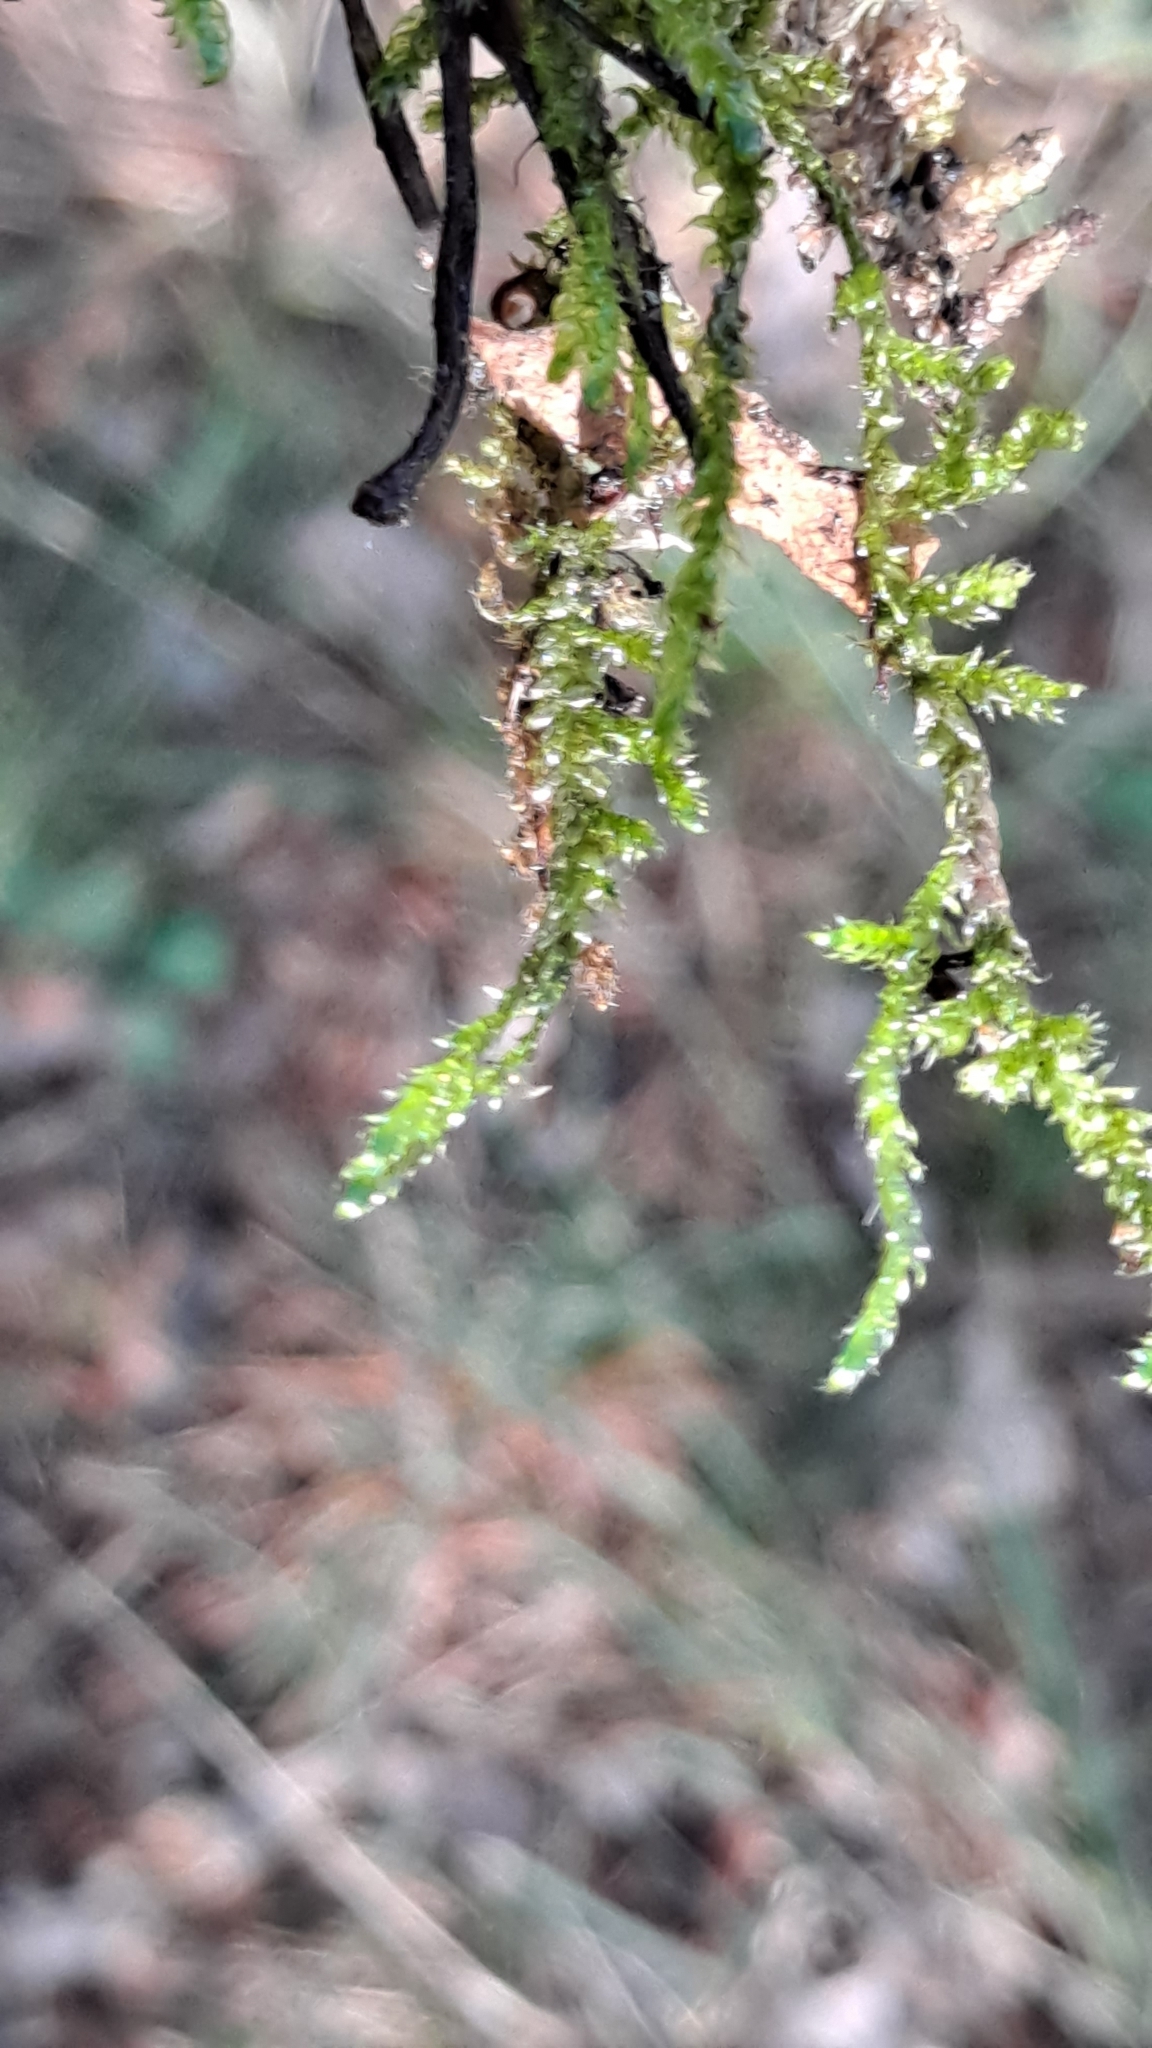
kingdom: Plantae
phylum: Bryophyta
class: Bryopsida
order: Hypnales
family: Hypnaceae
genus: Hypnum
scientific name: Hypnum cupressiforme
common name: Cypress-leaved plait-moss
